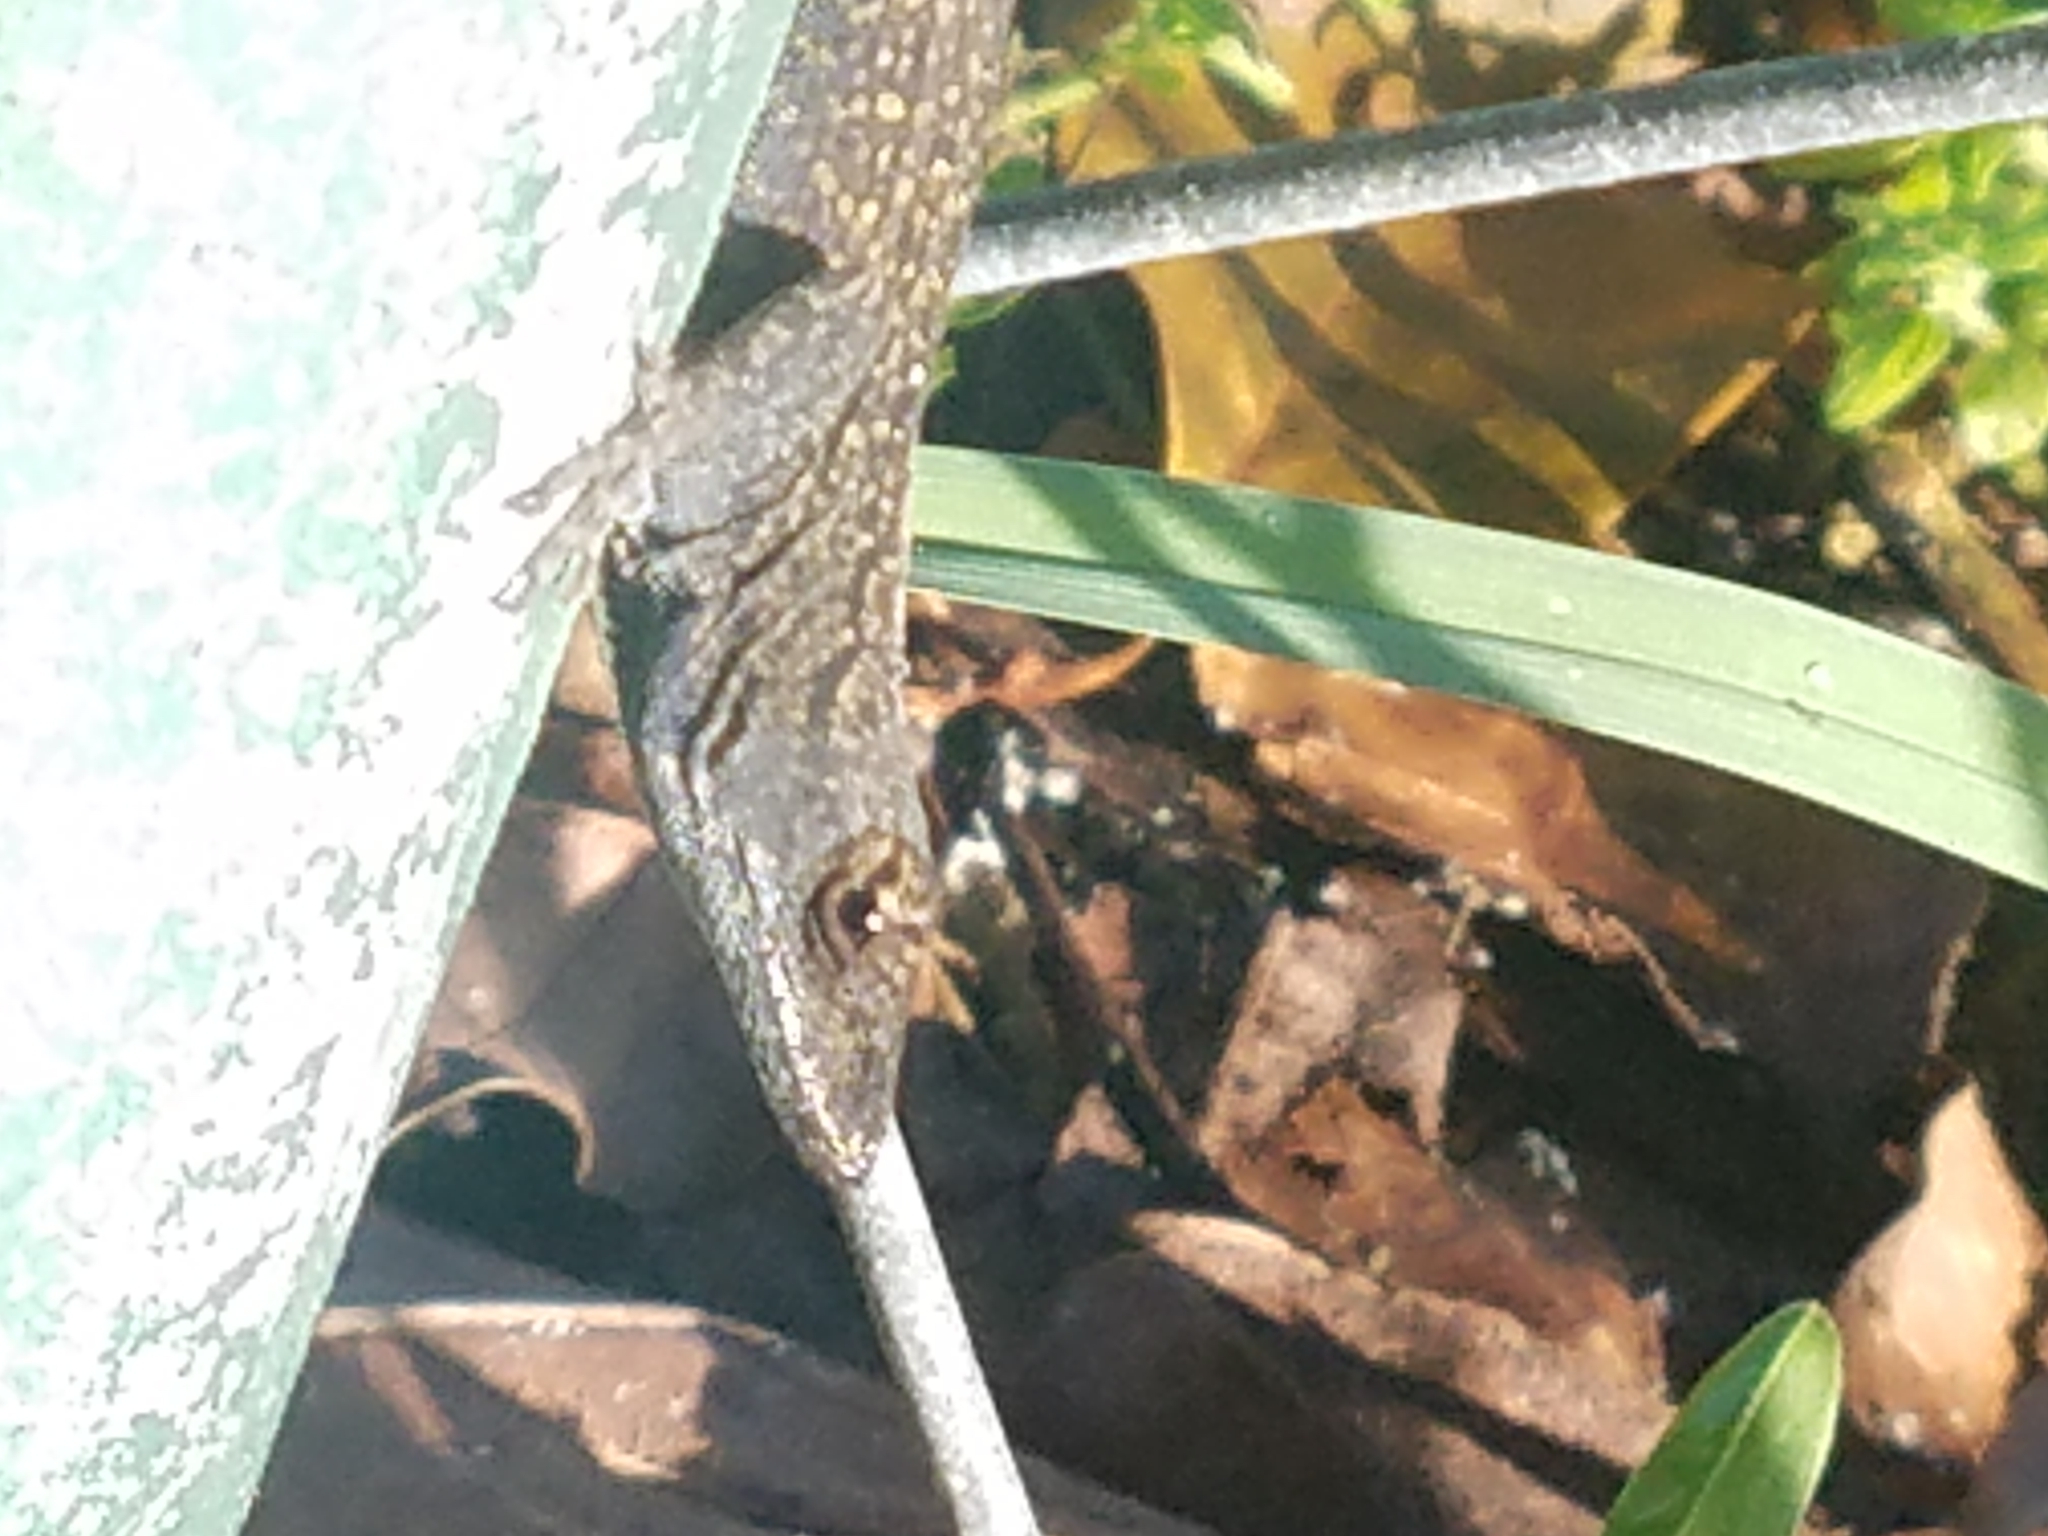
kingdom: Animalia
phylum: Chordata
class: Squamata
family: Dactyloidae
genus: Anolis
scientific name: Anolis sagrei
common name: Brown anole
